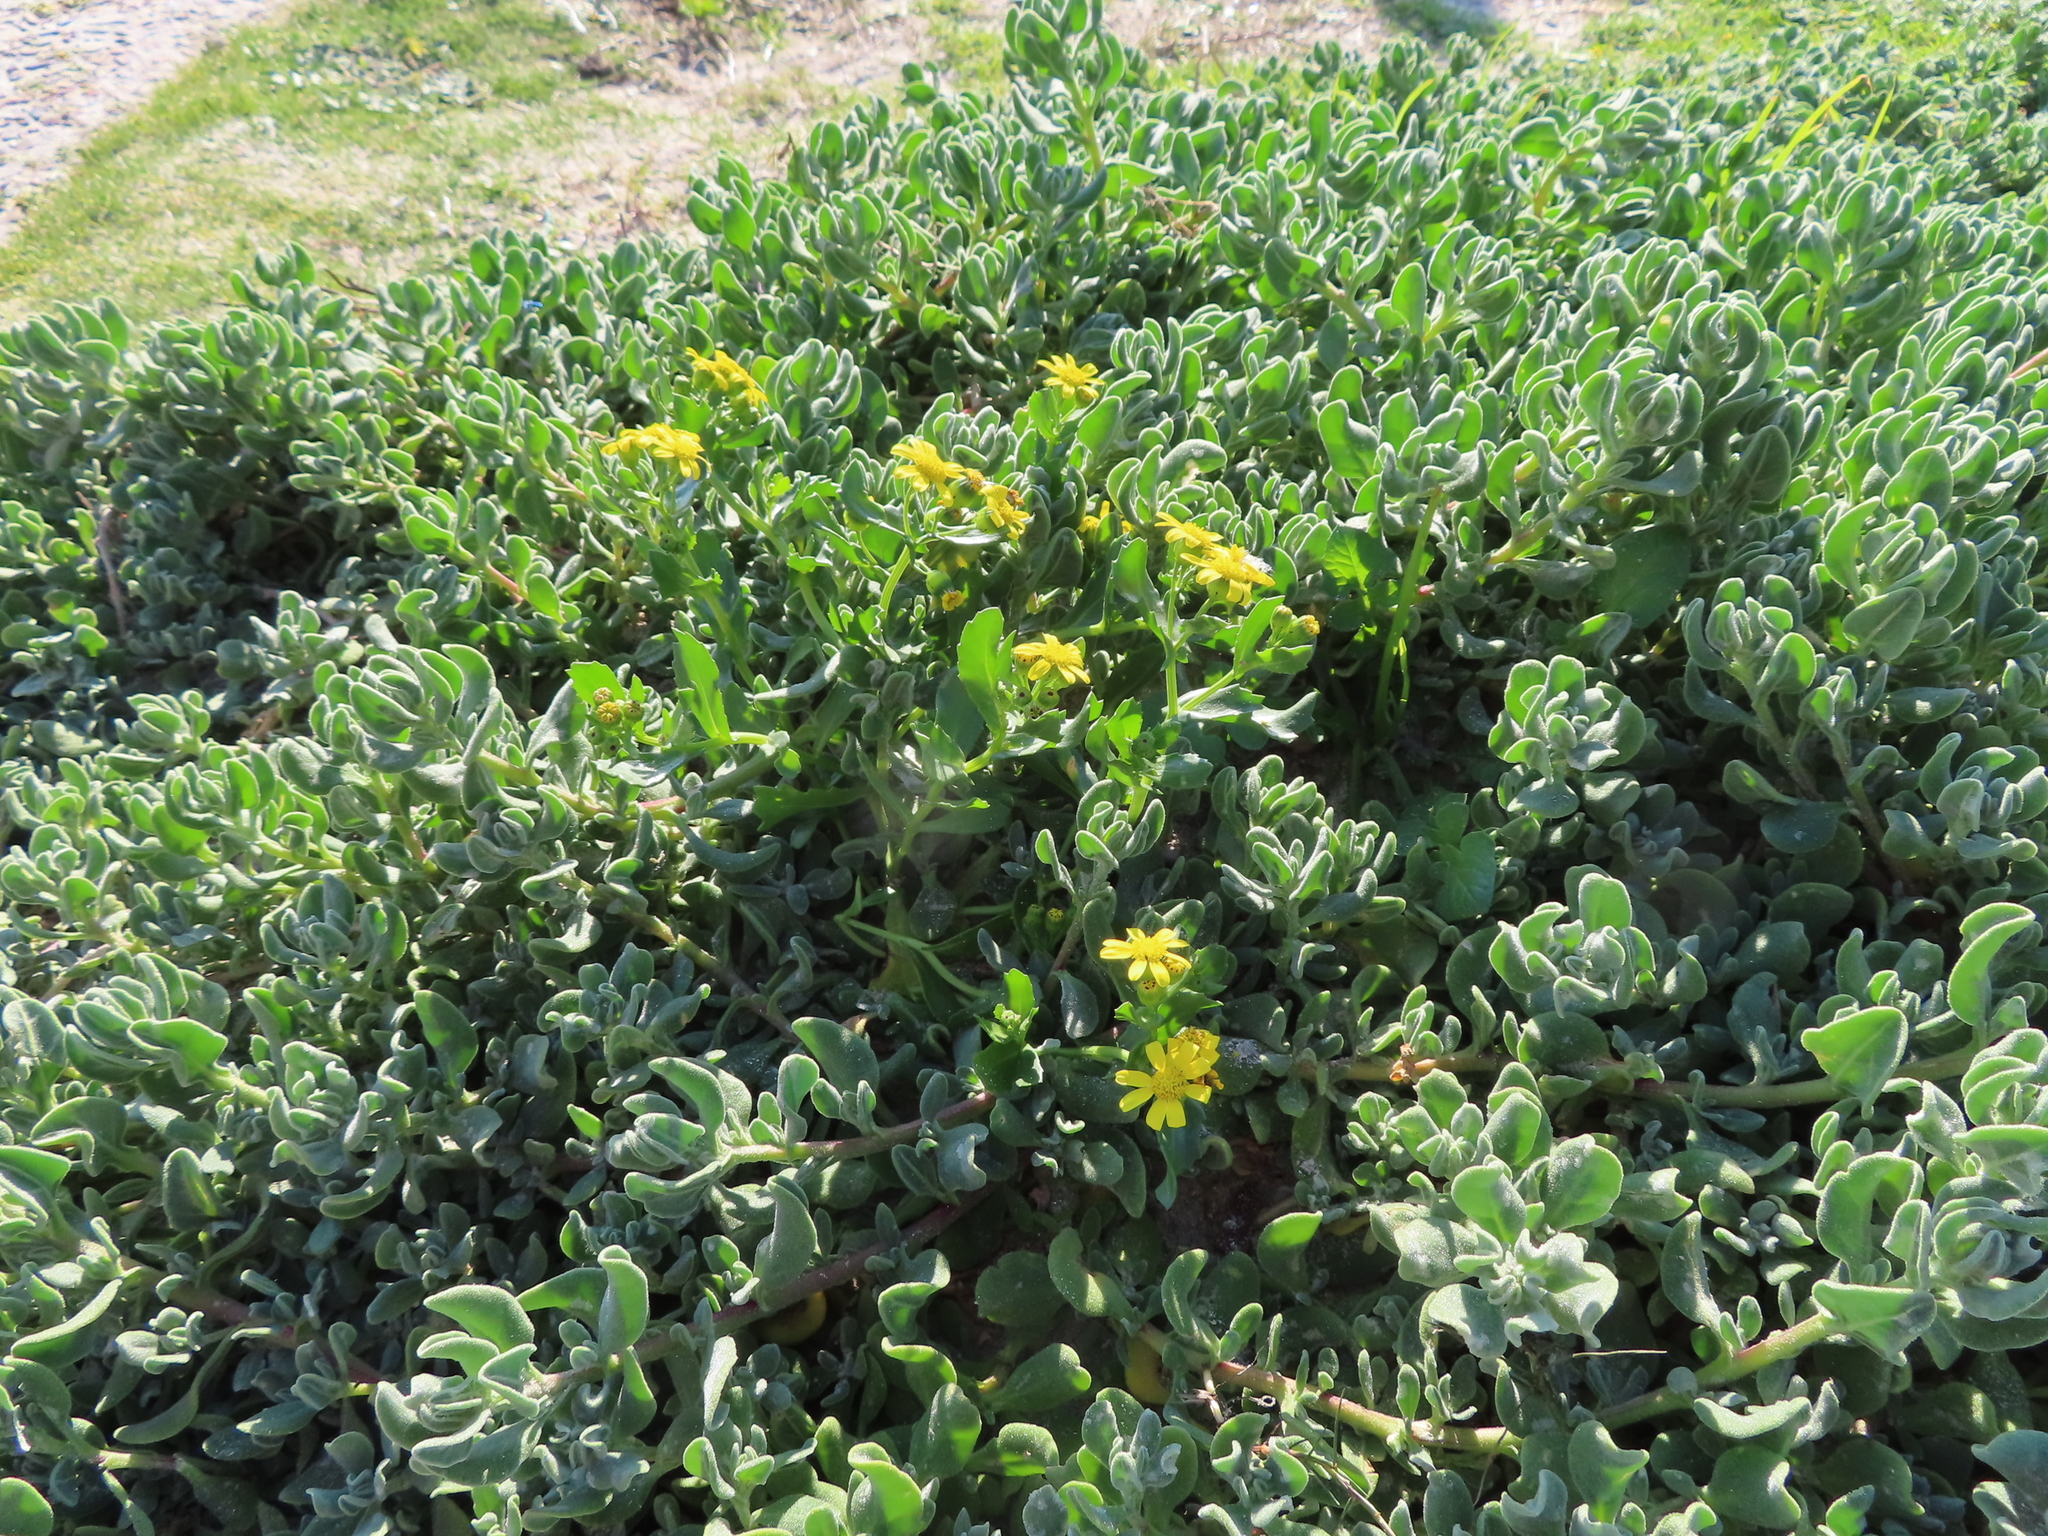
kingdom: Plantae
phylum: Tracheophyta
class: Magnoliopsida
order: Asterales
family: Asteraceae
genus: Senecio
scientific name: Senecio maritimus
